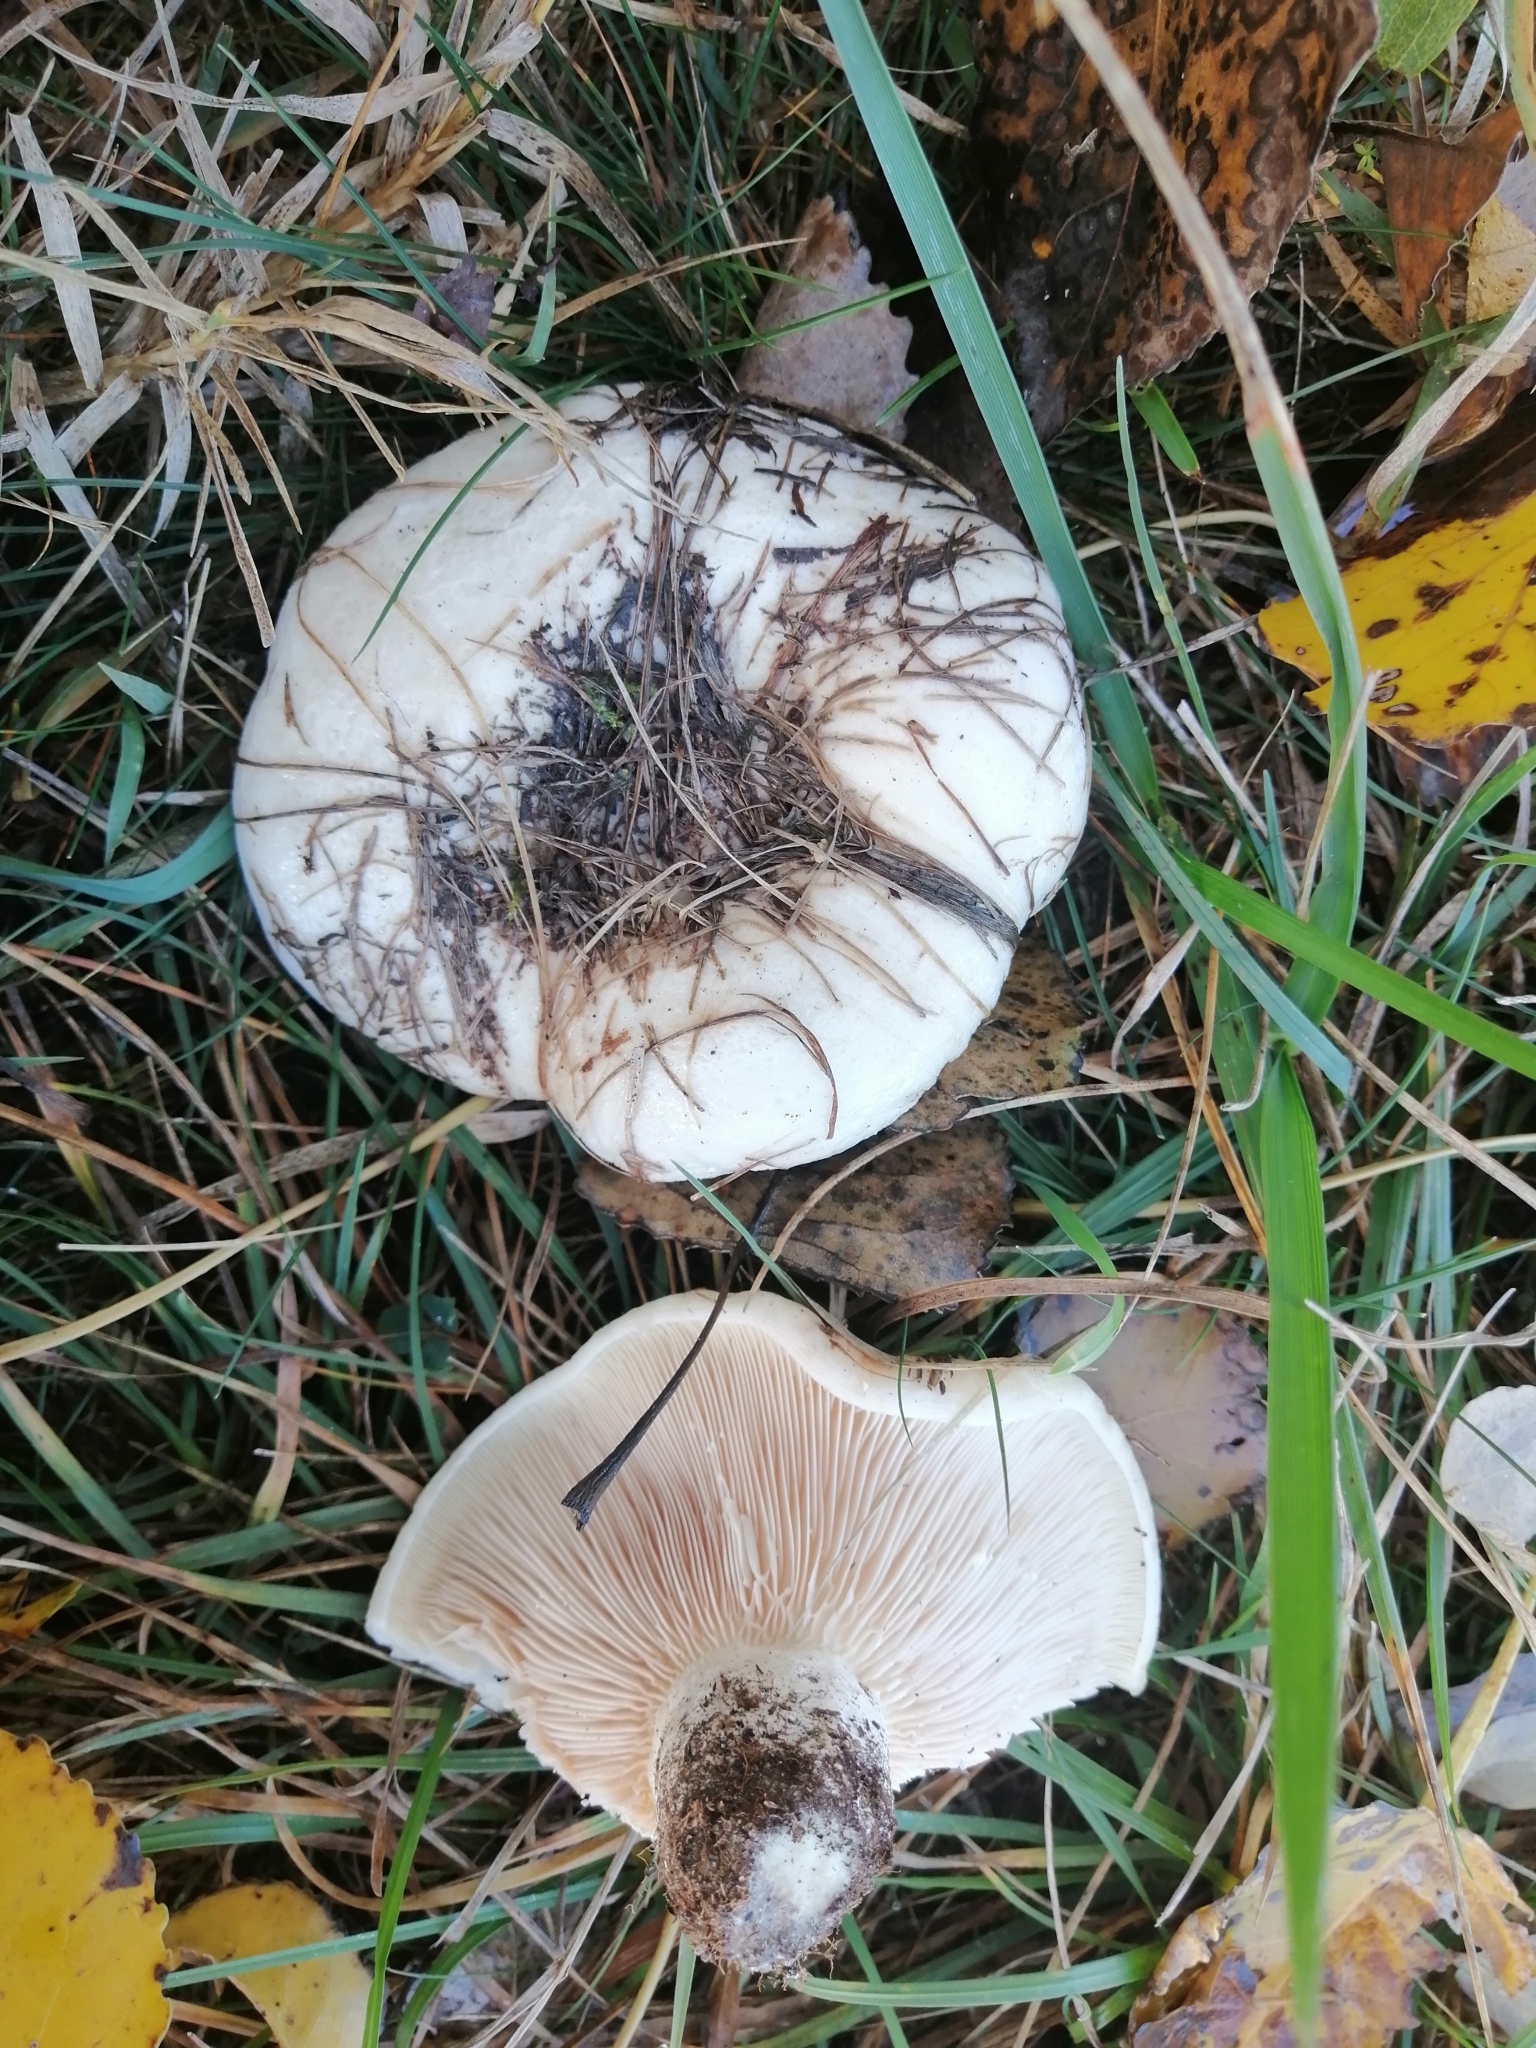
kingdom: Fungi
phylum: Basidiomycota
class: Agaricomycetes
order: Russulales
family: Russulaceae
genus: Lactarius
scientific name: Lactarius controversus
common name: Blushing milkcap
